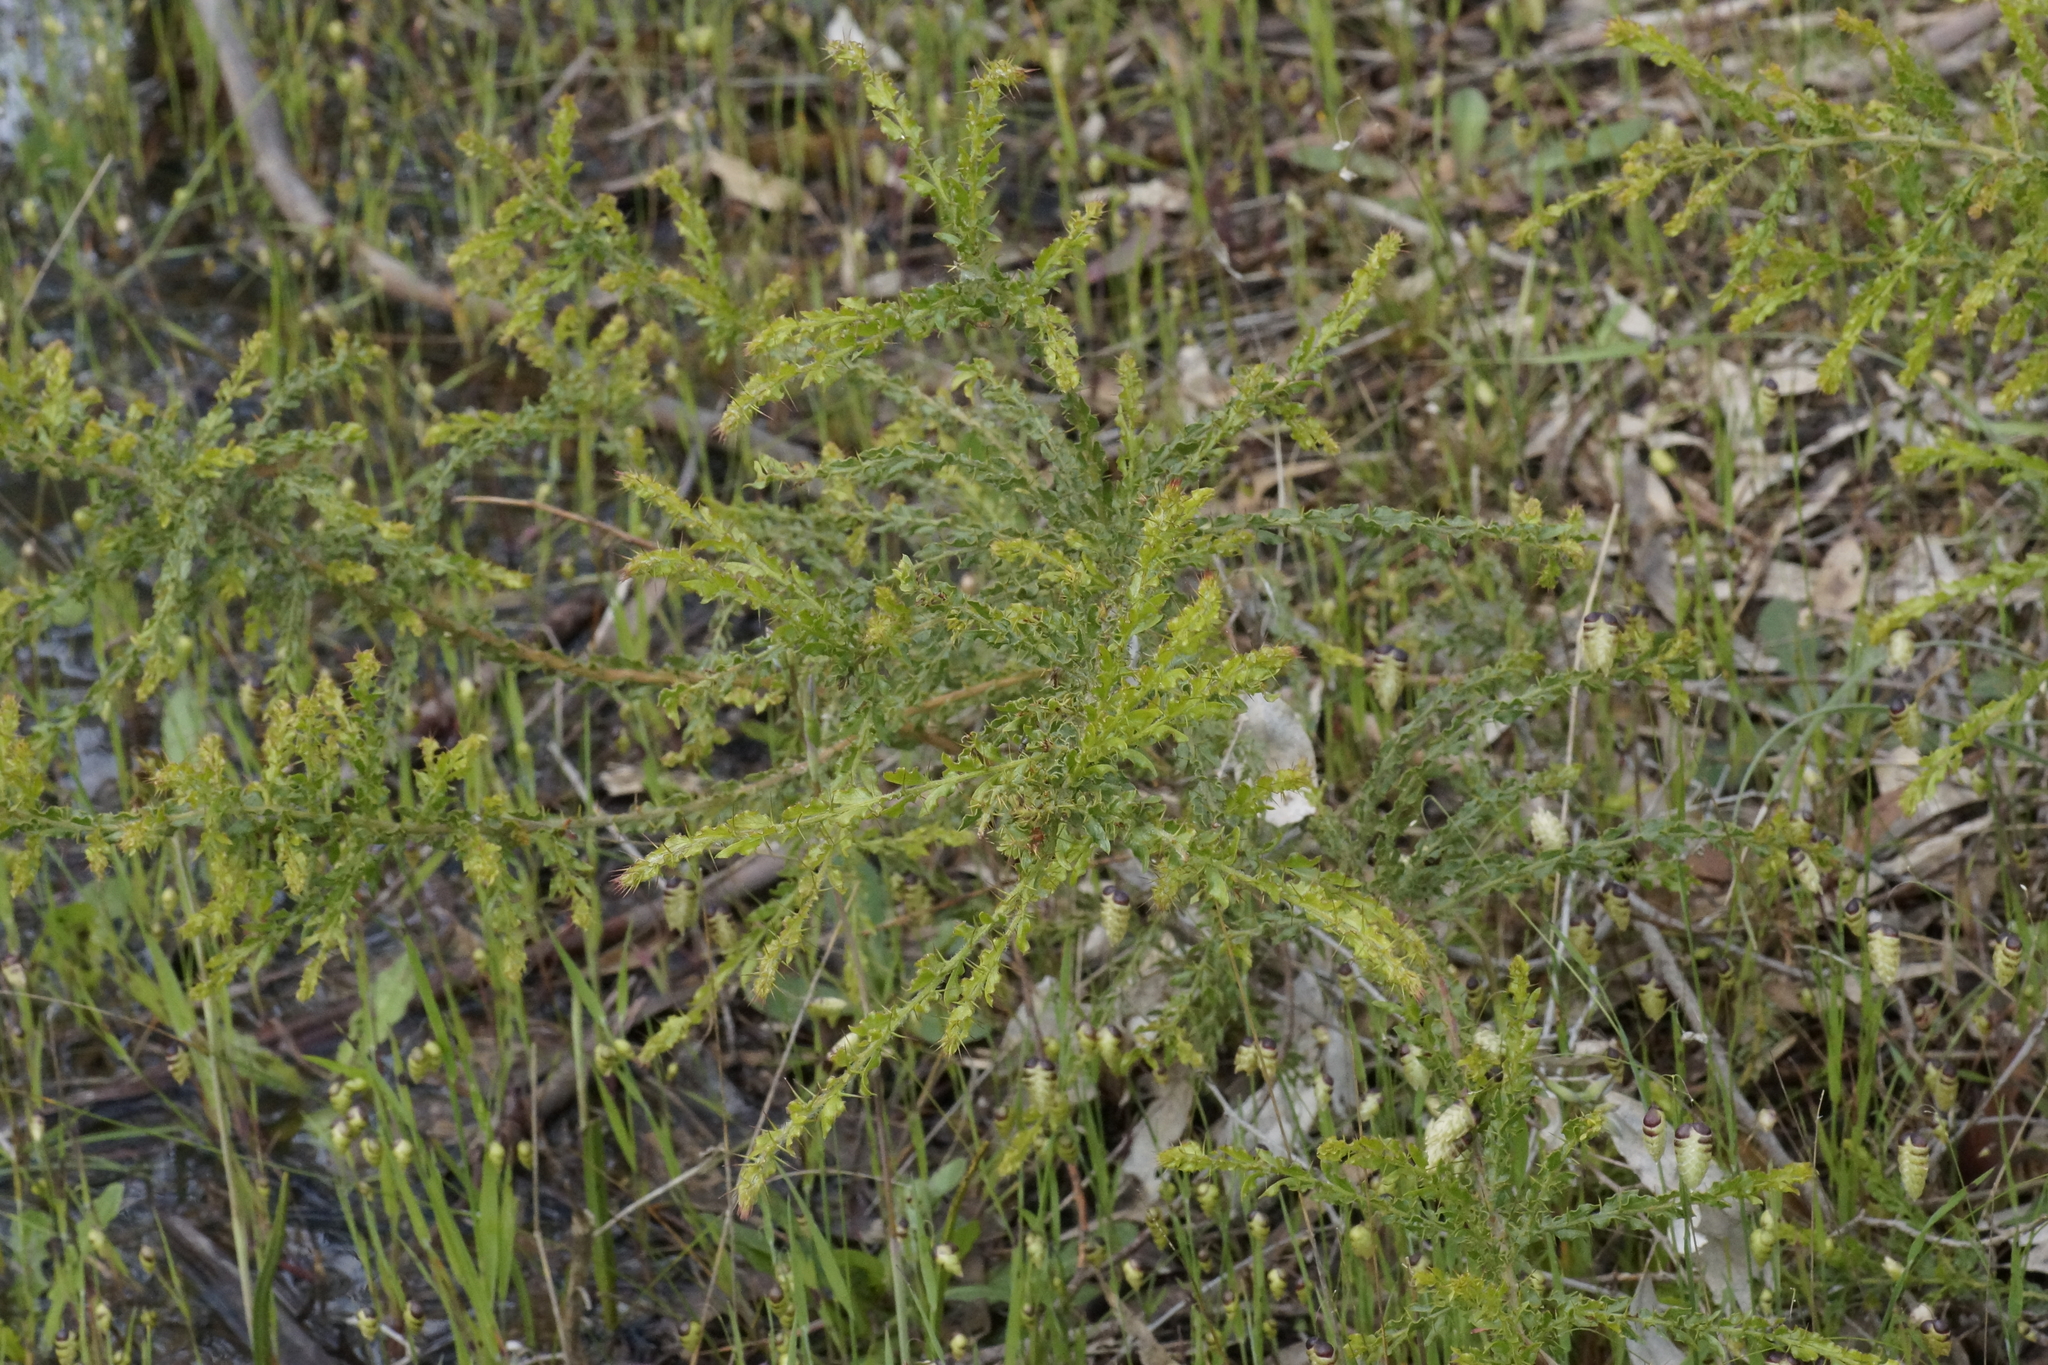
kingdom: Plantae
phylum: Tracheophyta
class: Magnoliopsida
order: Fabales
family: Fabaceae
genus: Acacia
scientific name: Acacia paradoxa
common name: Paradox acacia
